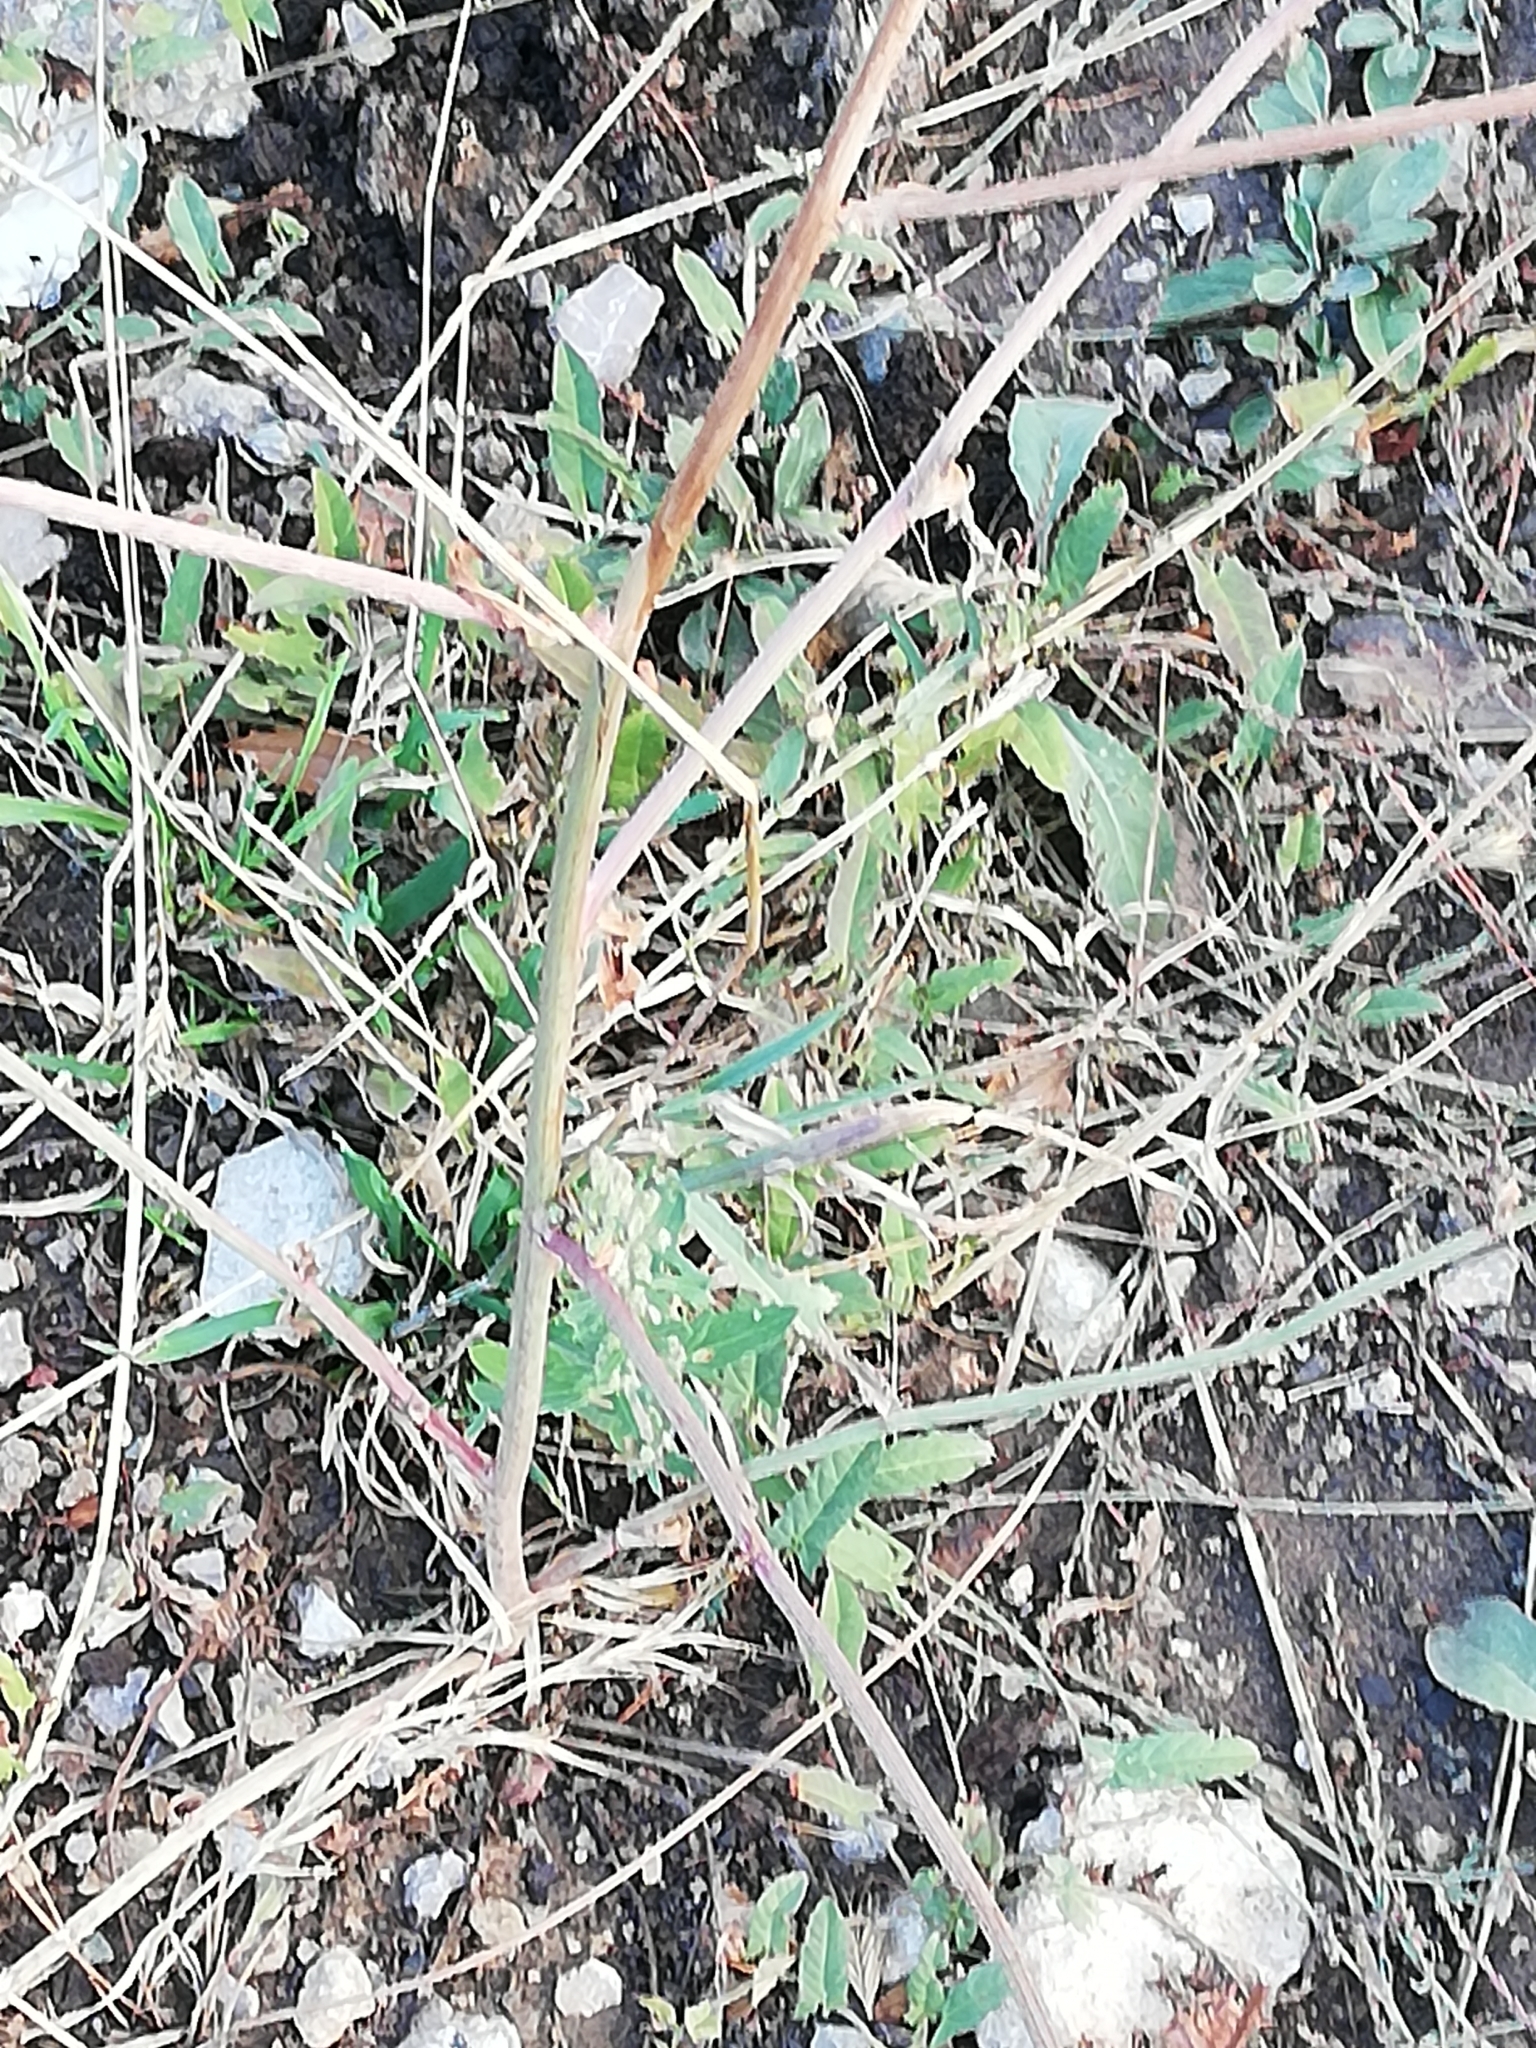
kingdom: Plantae
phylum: Tracheophyta
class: Magnoliopsida
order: Asterales
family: Asteraceae
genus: Cichorium
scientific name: Cichorium intybus
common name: Chicory
